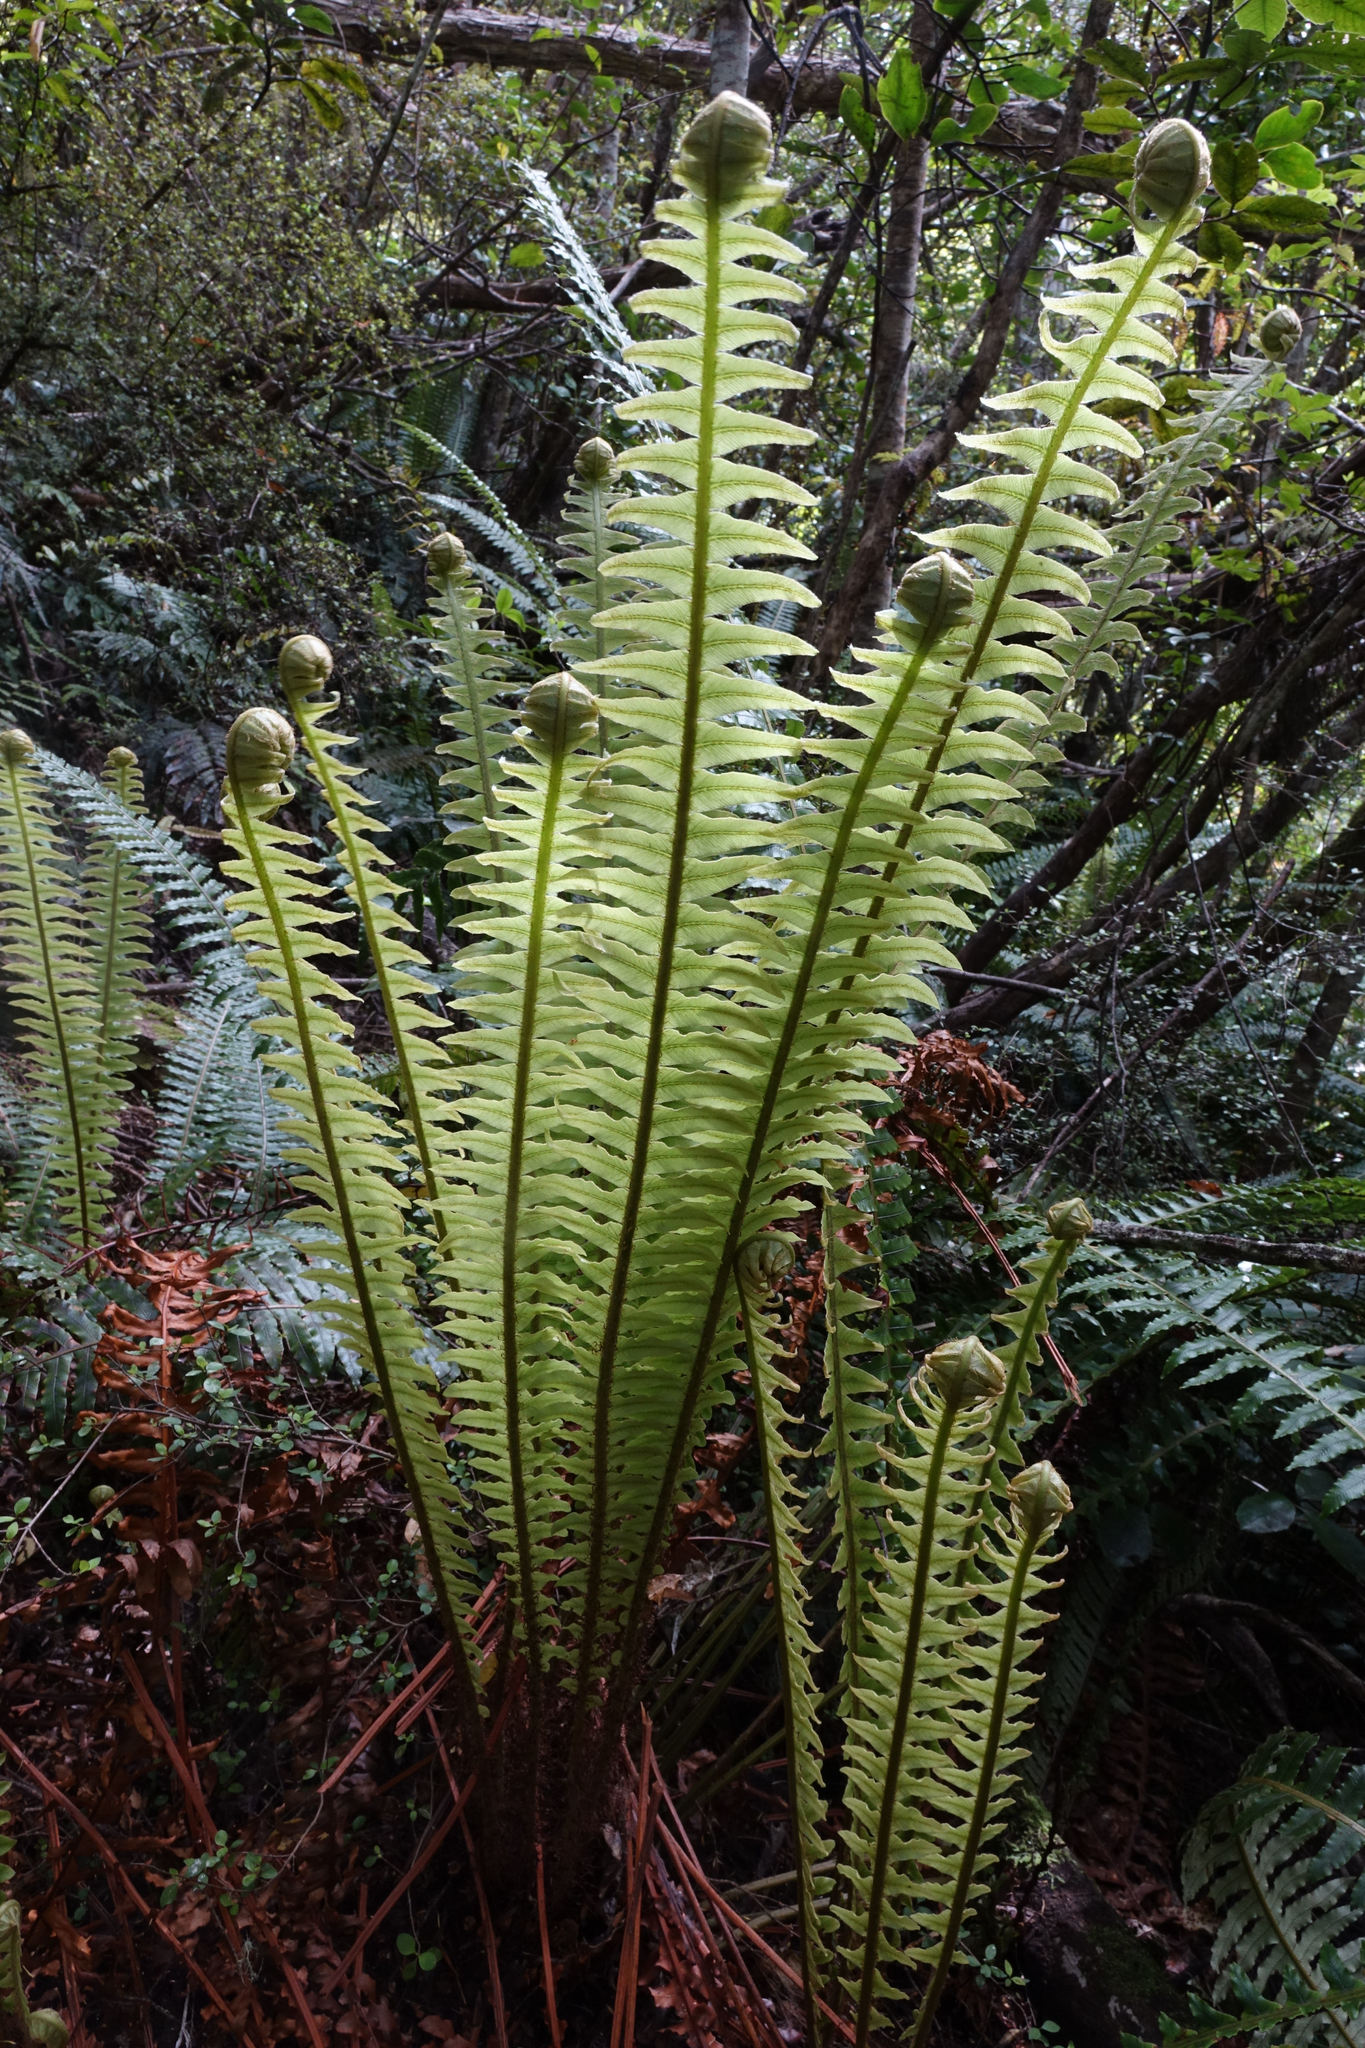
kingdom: Plantae
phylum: Tracheophyta
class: Polypodiopsida
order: Polypodiales
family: Blechnaceae
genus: Lomaria
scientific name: Lomaria discolor
